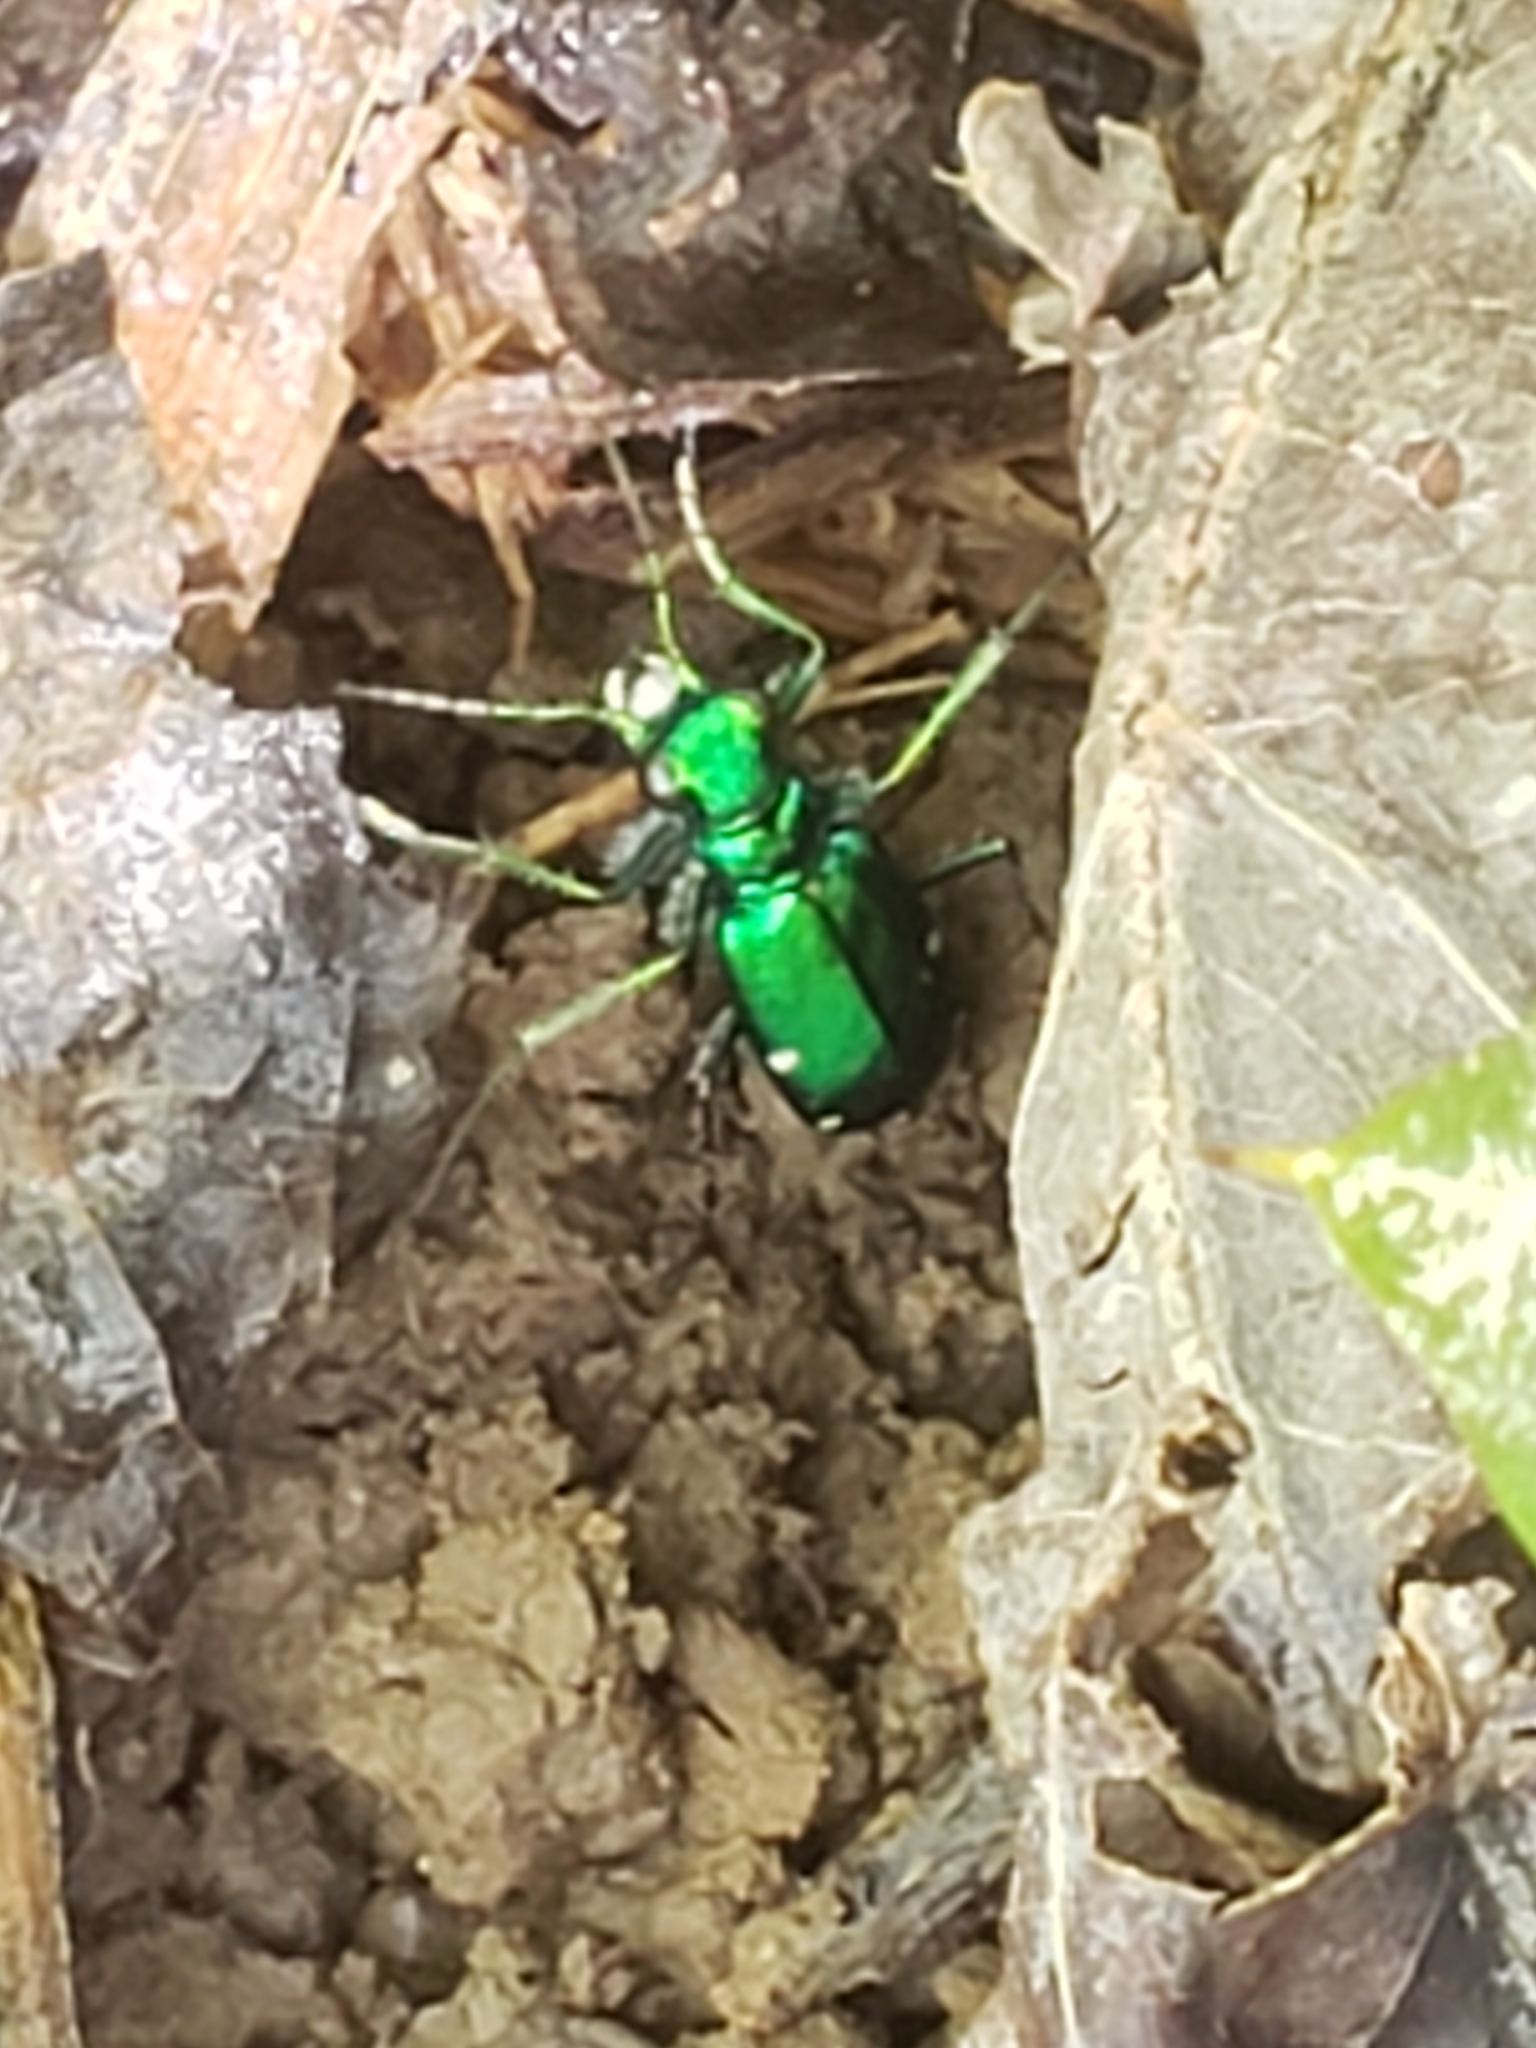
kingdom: Animalia
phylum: Arthropoda
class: Insecta
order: Coleoptera
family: Carabidae
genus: Cicindela
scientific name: Cicindela sexguttata
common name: Six-spotted tiger beetle
